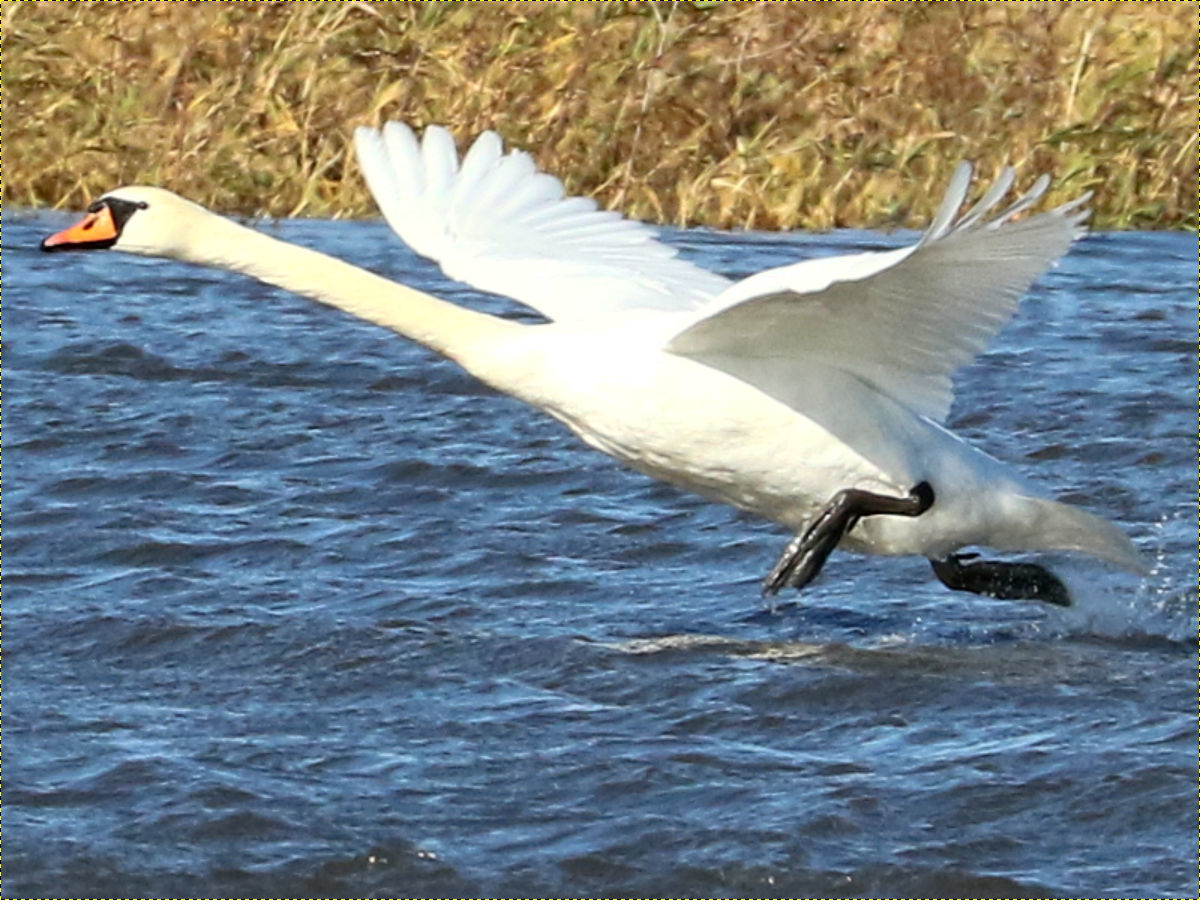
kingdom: Animalia
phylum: Chordata
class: Aves
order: Anseriformes
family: Anatidae
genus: Cygnus
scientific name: Cygnus olor
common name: Mute swan
